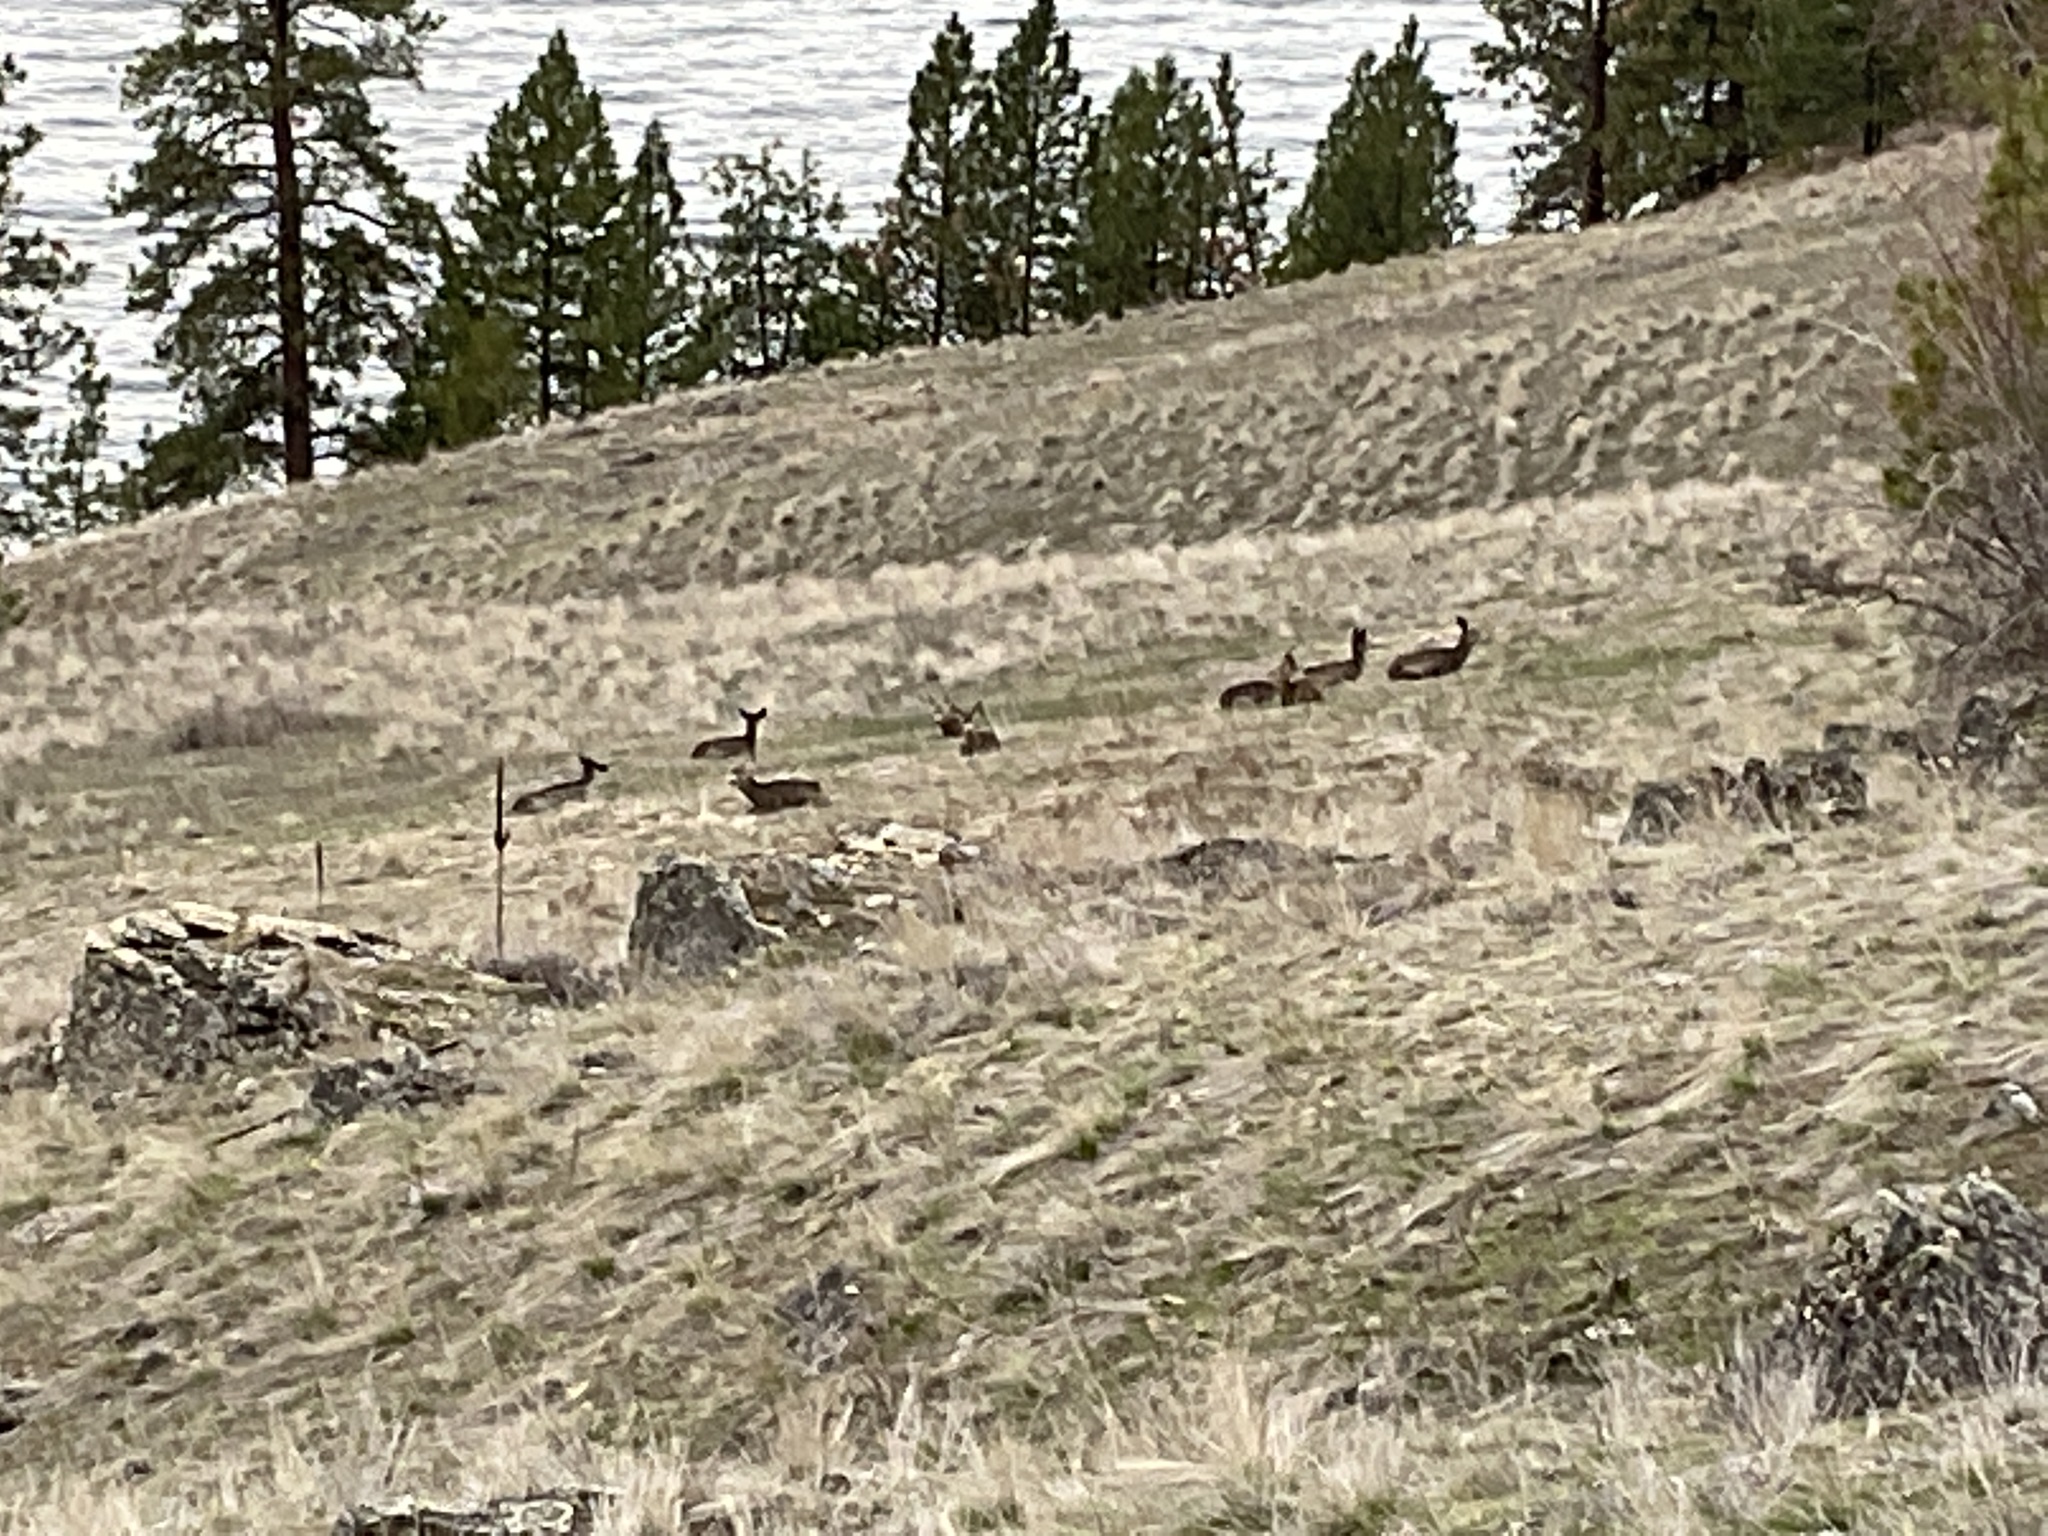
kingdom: Animalia
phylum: Chordata
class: Mammalia
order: Artiodactyla
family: Cervidae
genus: Odocoileus
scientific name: Odocoileus hemionus
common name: Mule deer
